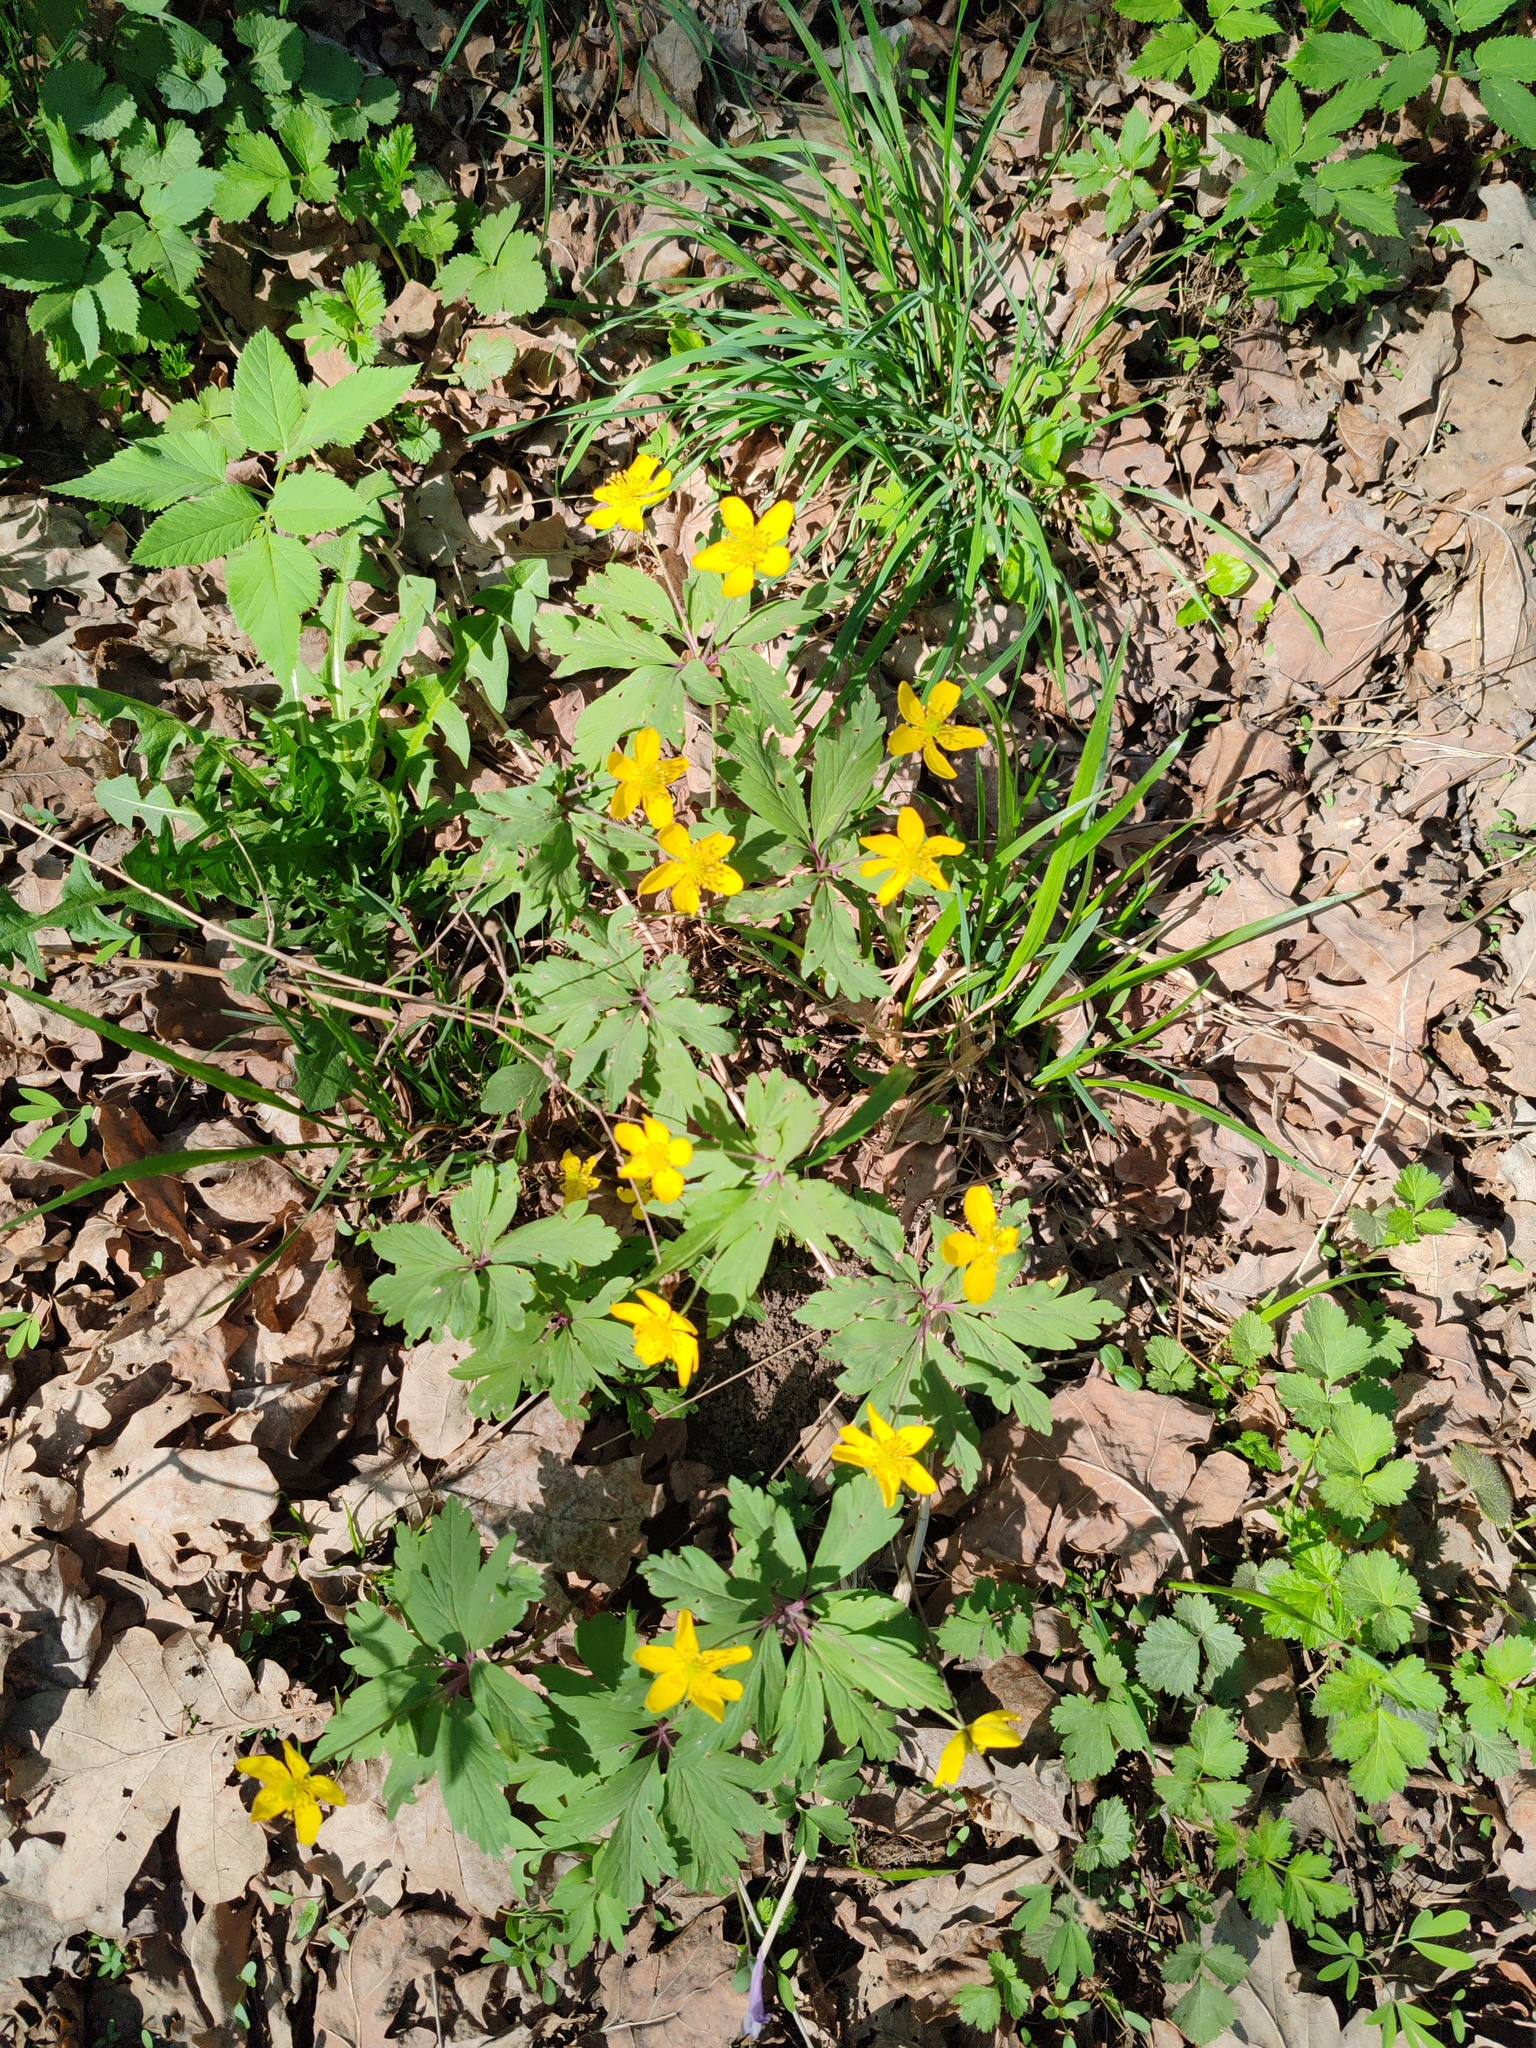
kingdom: Plantae
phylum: Tracheophyta
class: Magnoliopsida
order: Ranunculales
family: Ranunculaceae
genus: Anemone
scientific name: Anemone ranunculoides
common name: Yellow anemone
